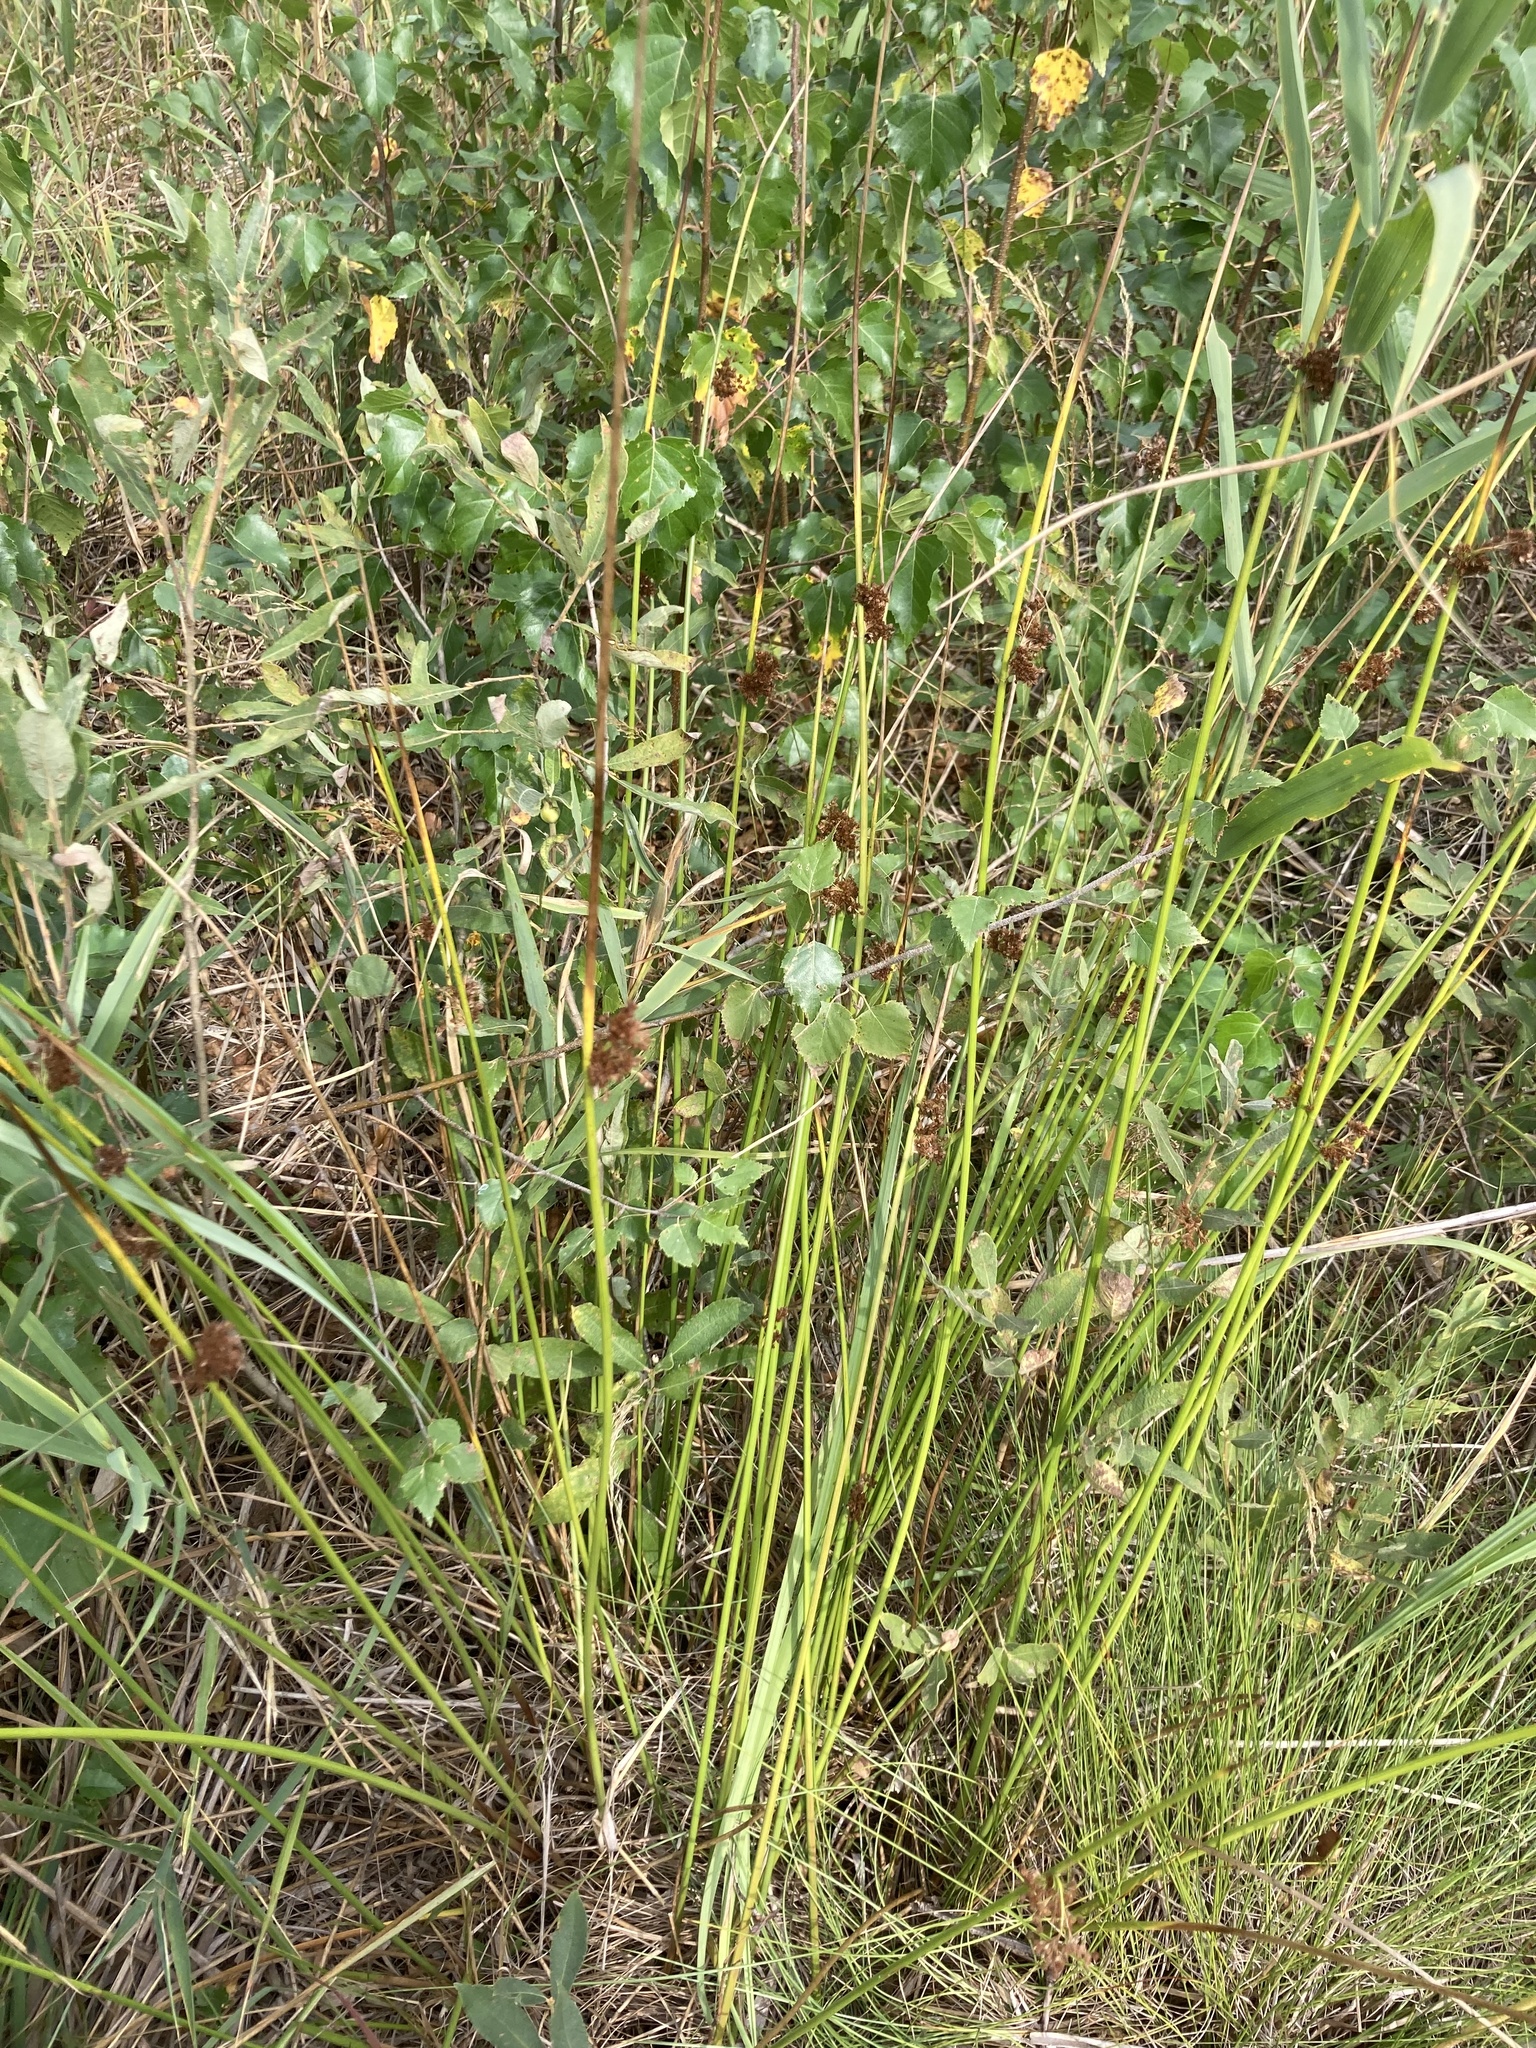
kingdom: Plantae
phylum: Tracheophyta
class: Liliopsida
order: Poales
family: Juncaceae
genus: Juncus
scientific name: Juncus effusus
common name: Soft rush
